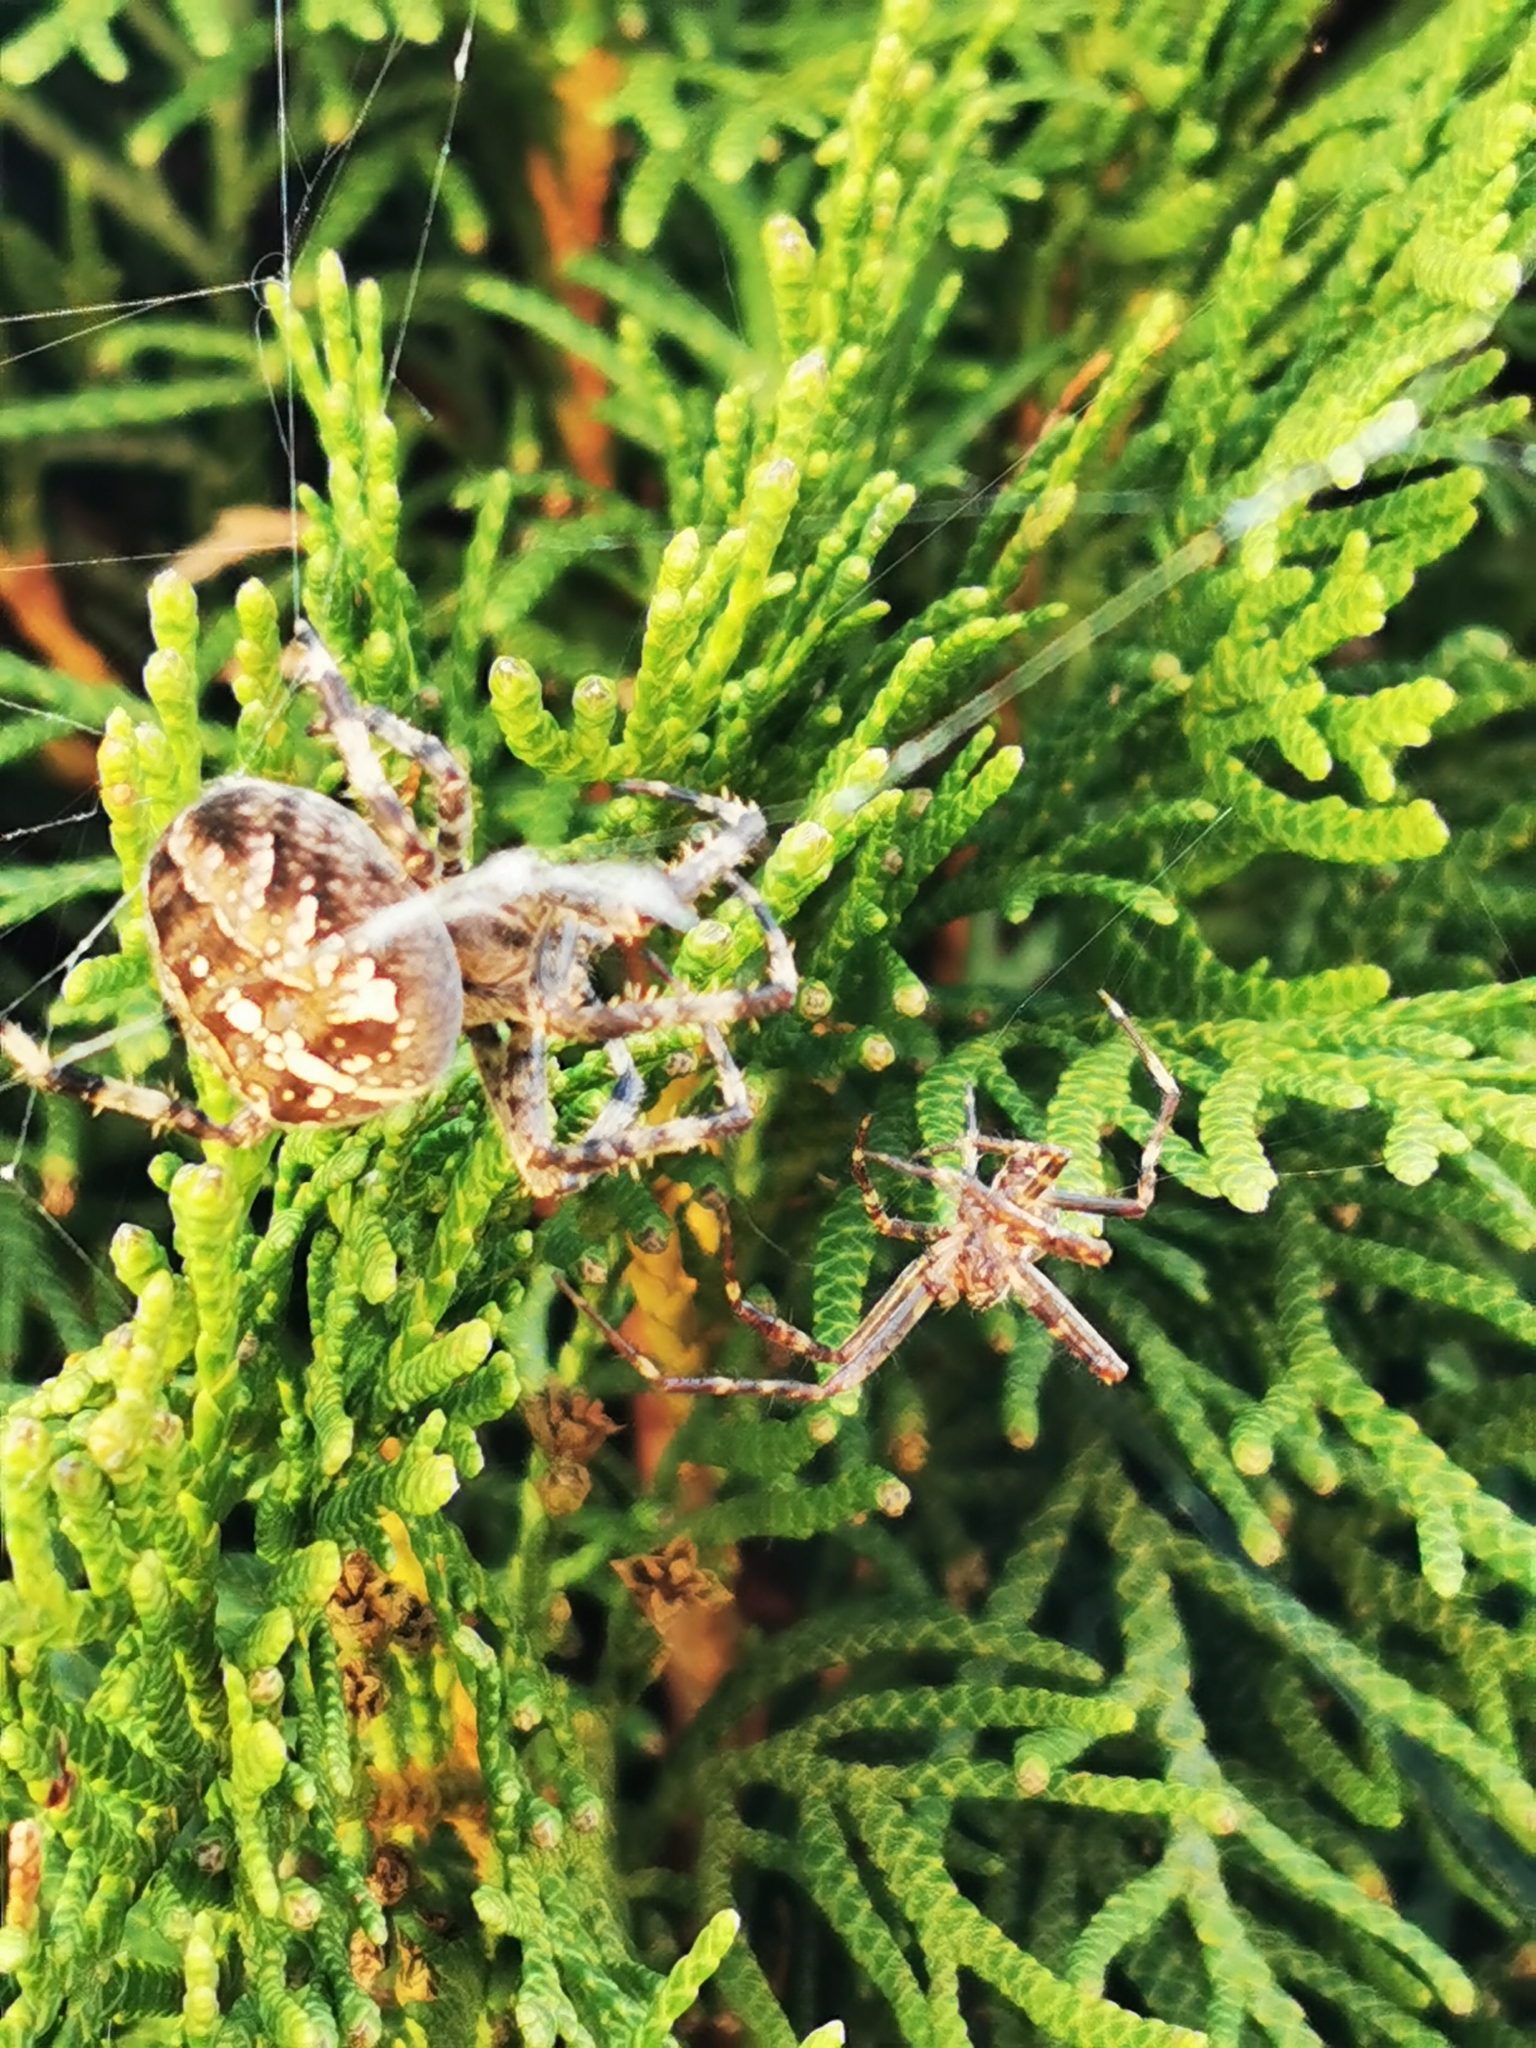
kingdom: Animalia
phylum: Arthropoda
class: Arachnida
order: Araneae
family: Araneidae
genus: Araneus
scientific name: Araneus diadematus
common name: Cross orbweaver
